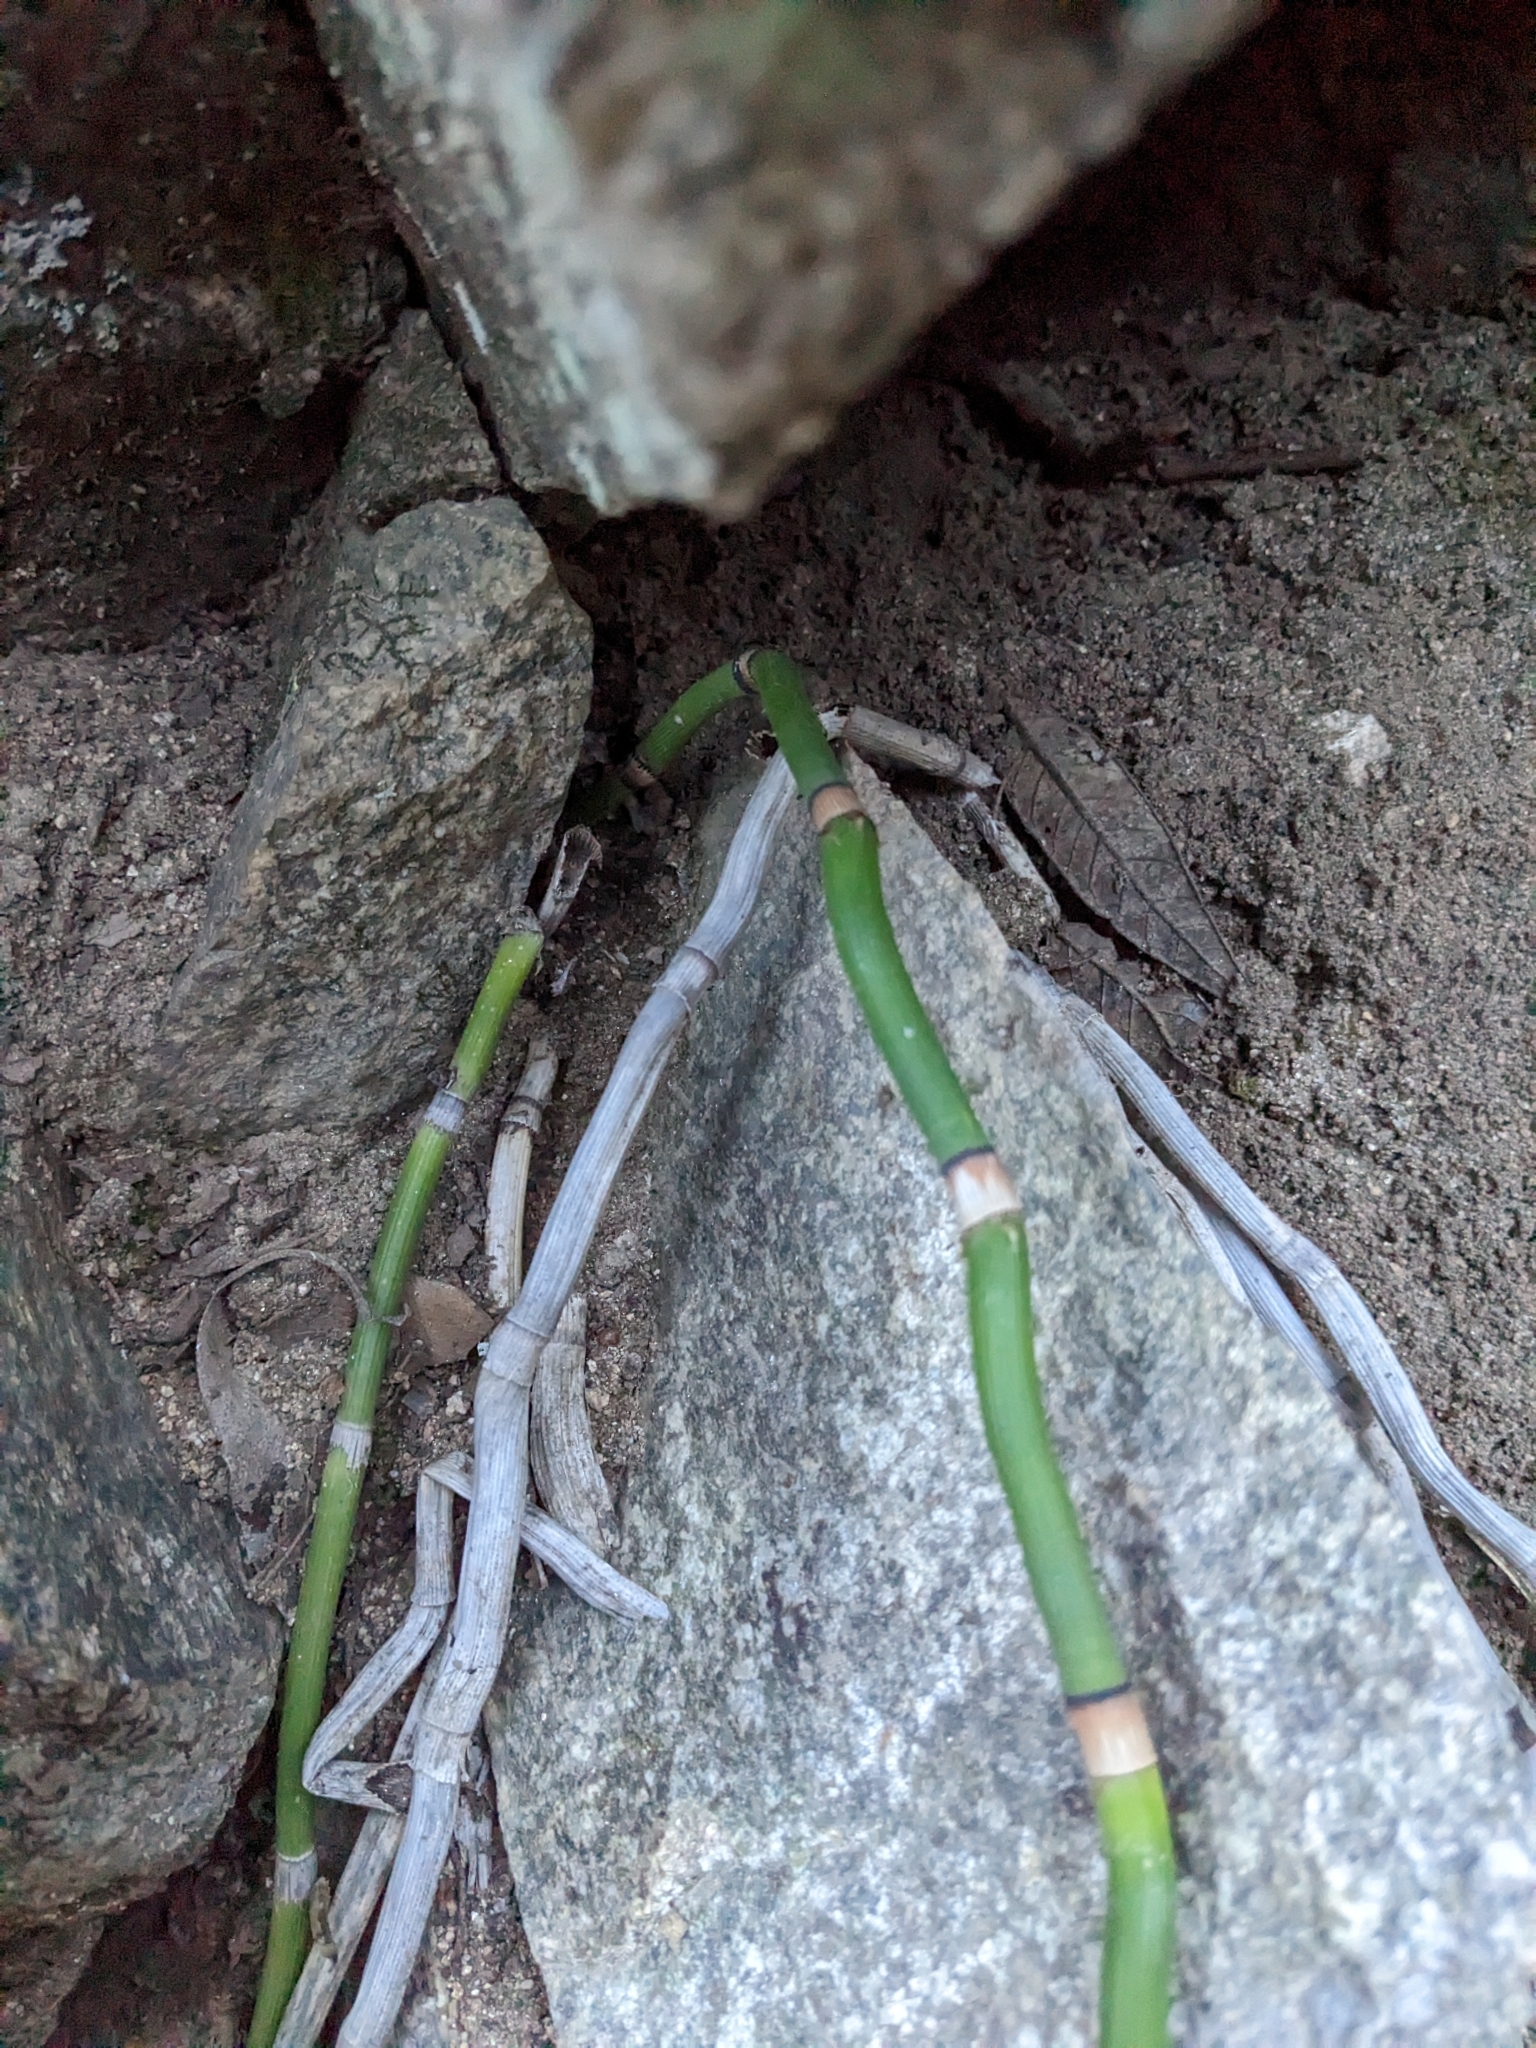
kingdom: Plantae
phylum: Tracheophyta
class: Polypodiopsida
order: Equisetales
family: Equisetaceae
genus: Equisetum
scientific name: Equisetum praealtum
